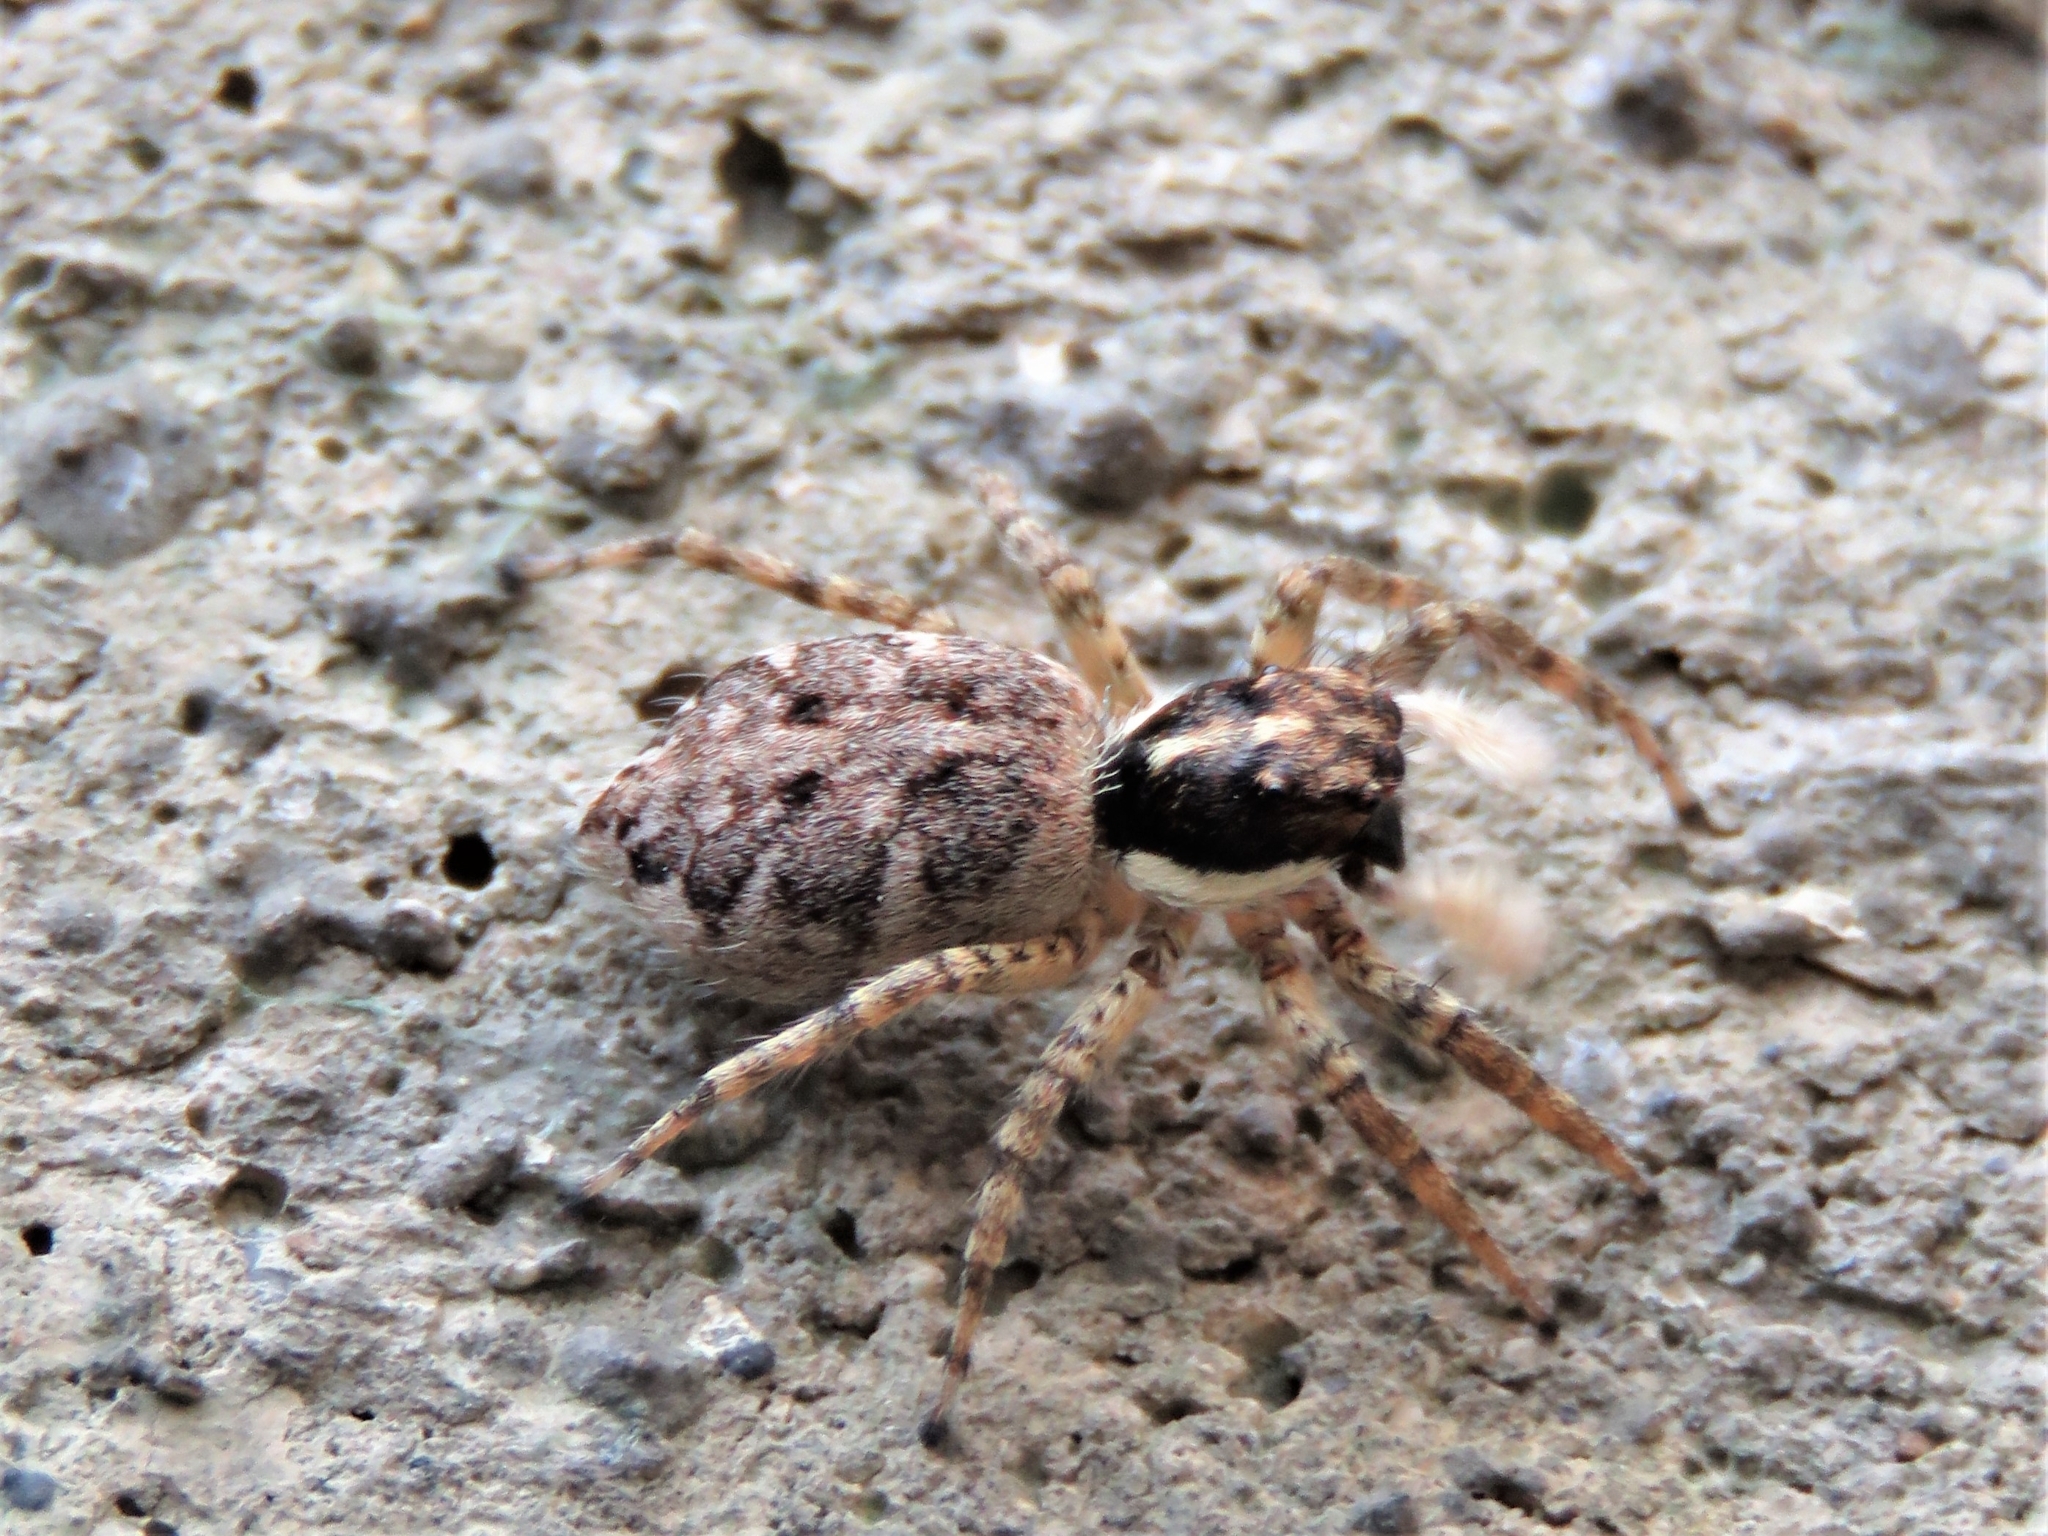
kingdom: Animalia
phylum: Arthropoda
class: Arachnida
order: Araneae
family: Salticidae
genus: Menemerus
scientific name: Menemerus semilimbatus
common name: Jumping spider
